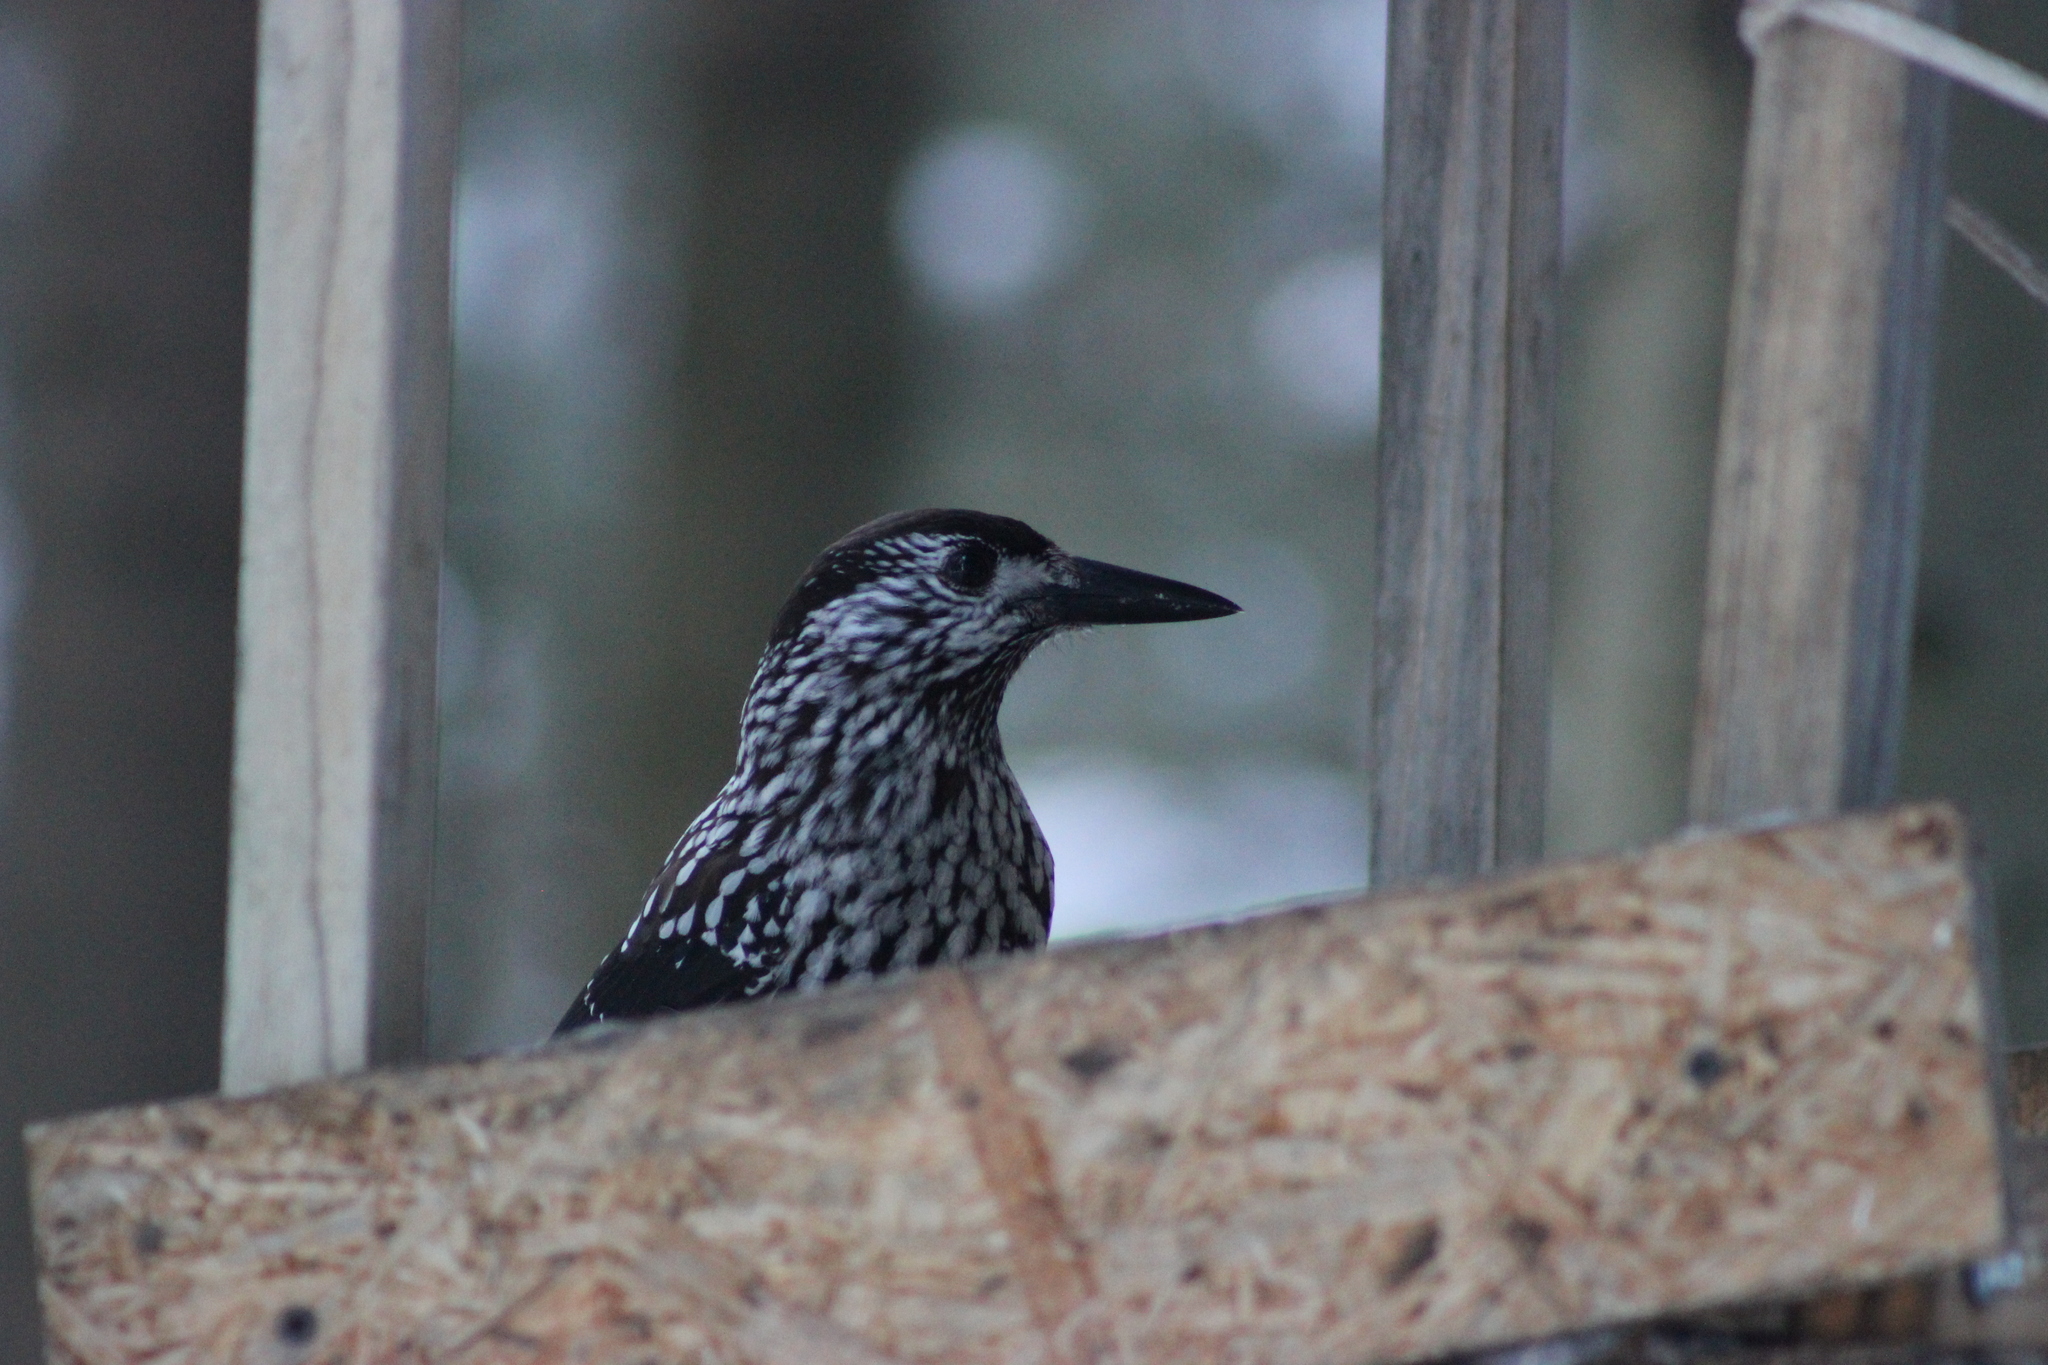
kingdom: Animalia
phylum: Chordata
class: Aves
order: Passeriformes
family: Corvidae
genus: Nucifraga
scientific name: Nucifraga caryocatactes
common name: Spotted nutcracker
